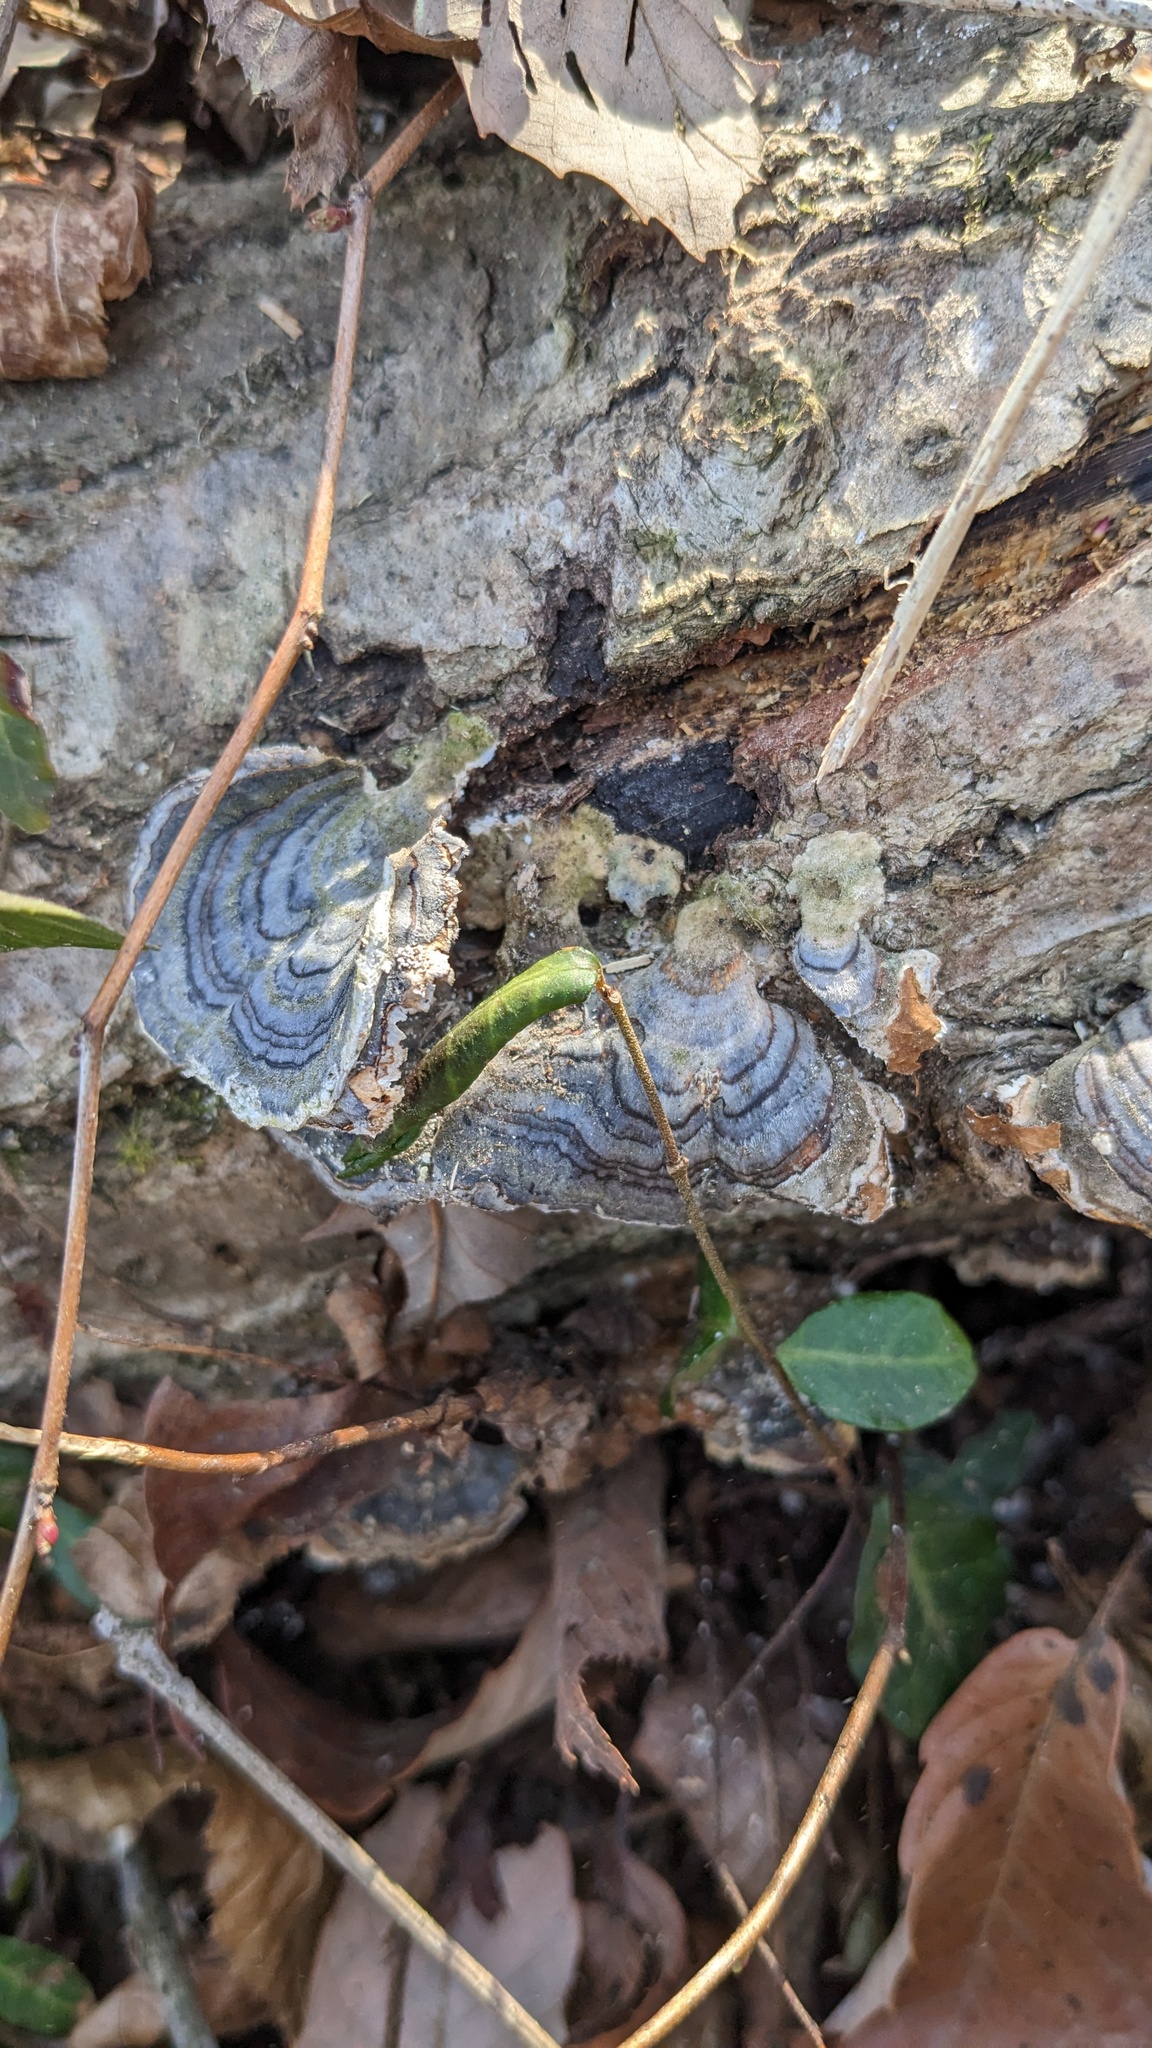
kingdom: Fungi
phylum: Basidiomycota
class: Agaricomycetes
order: Polyporales
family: Polyporaceae
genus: Trametes
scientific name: Trametes versicolor
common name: Turkeytail
